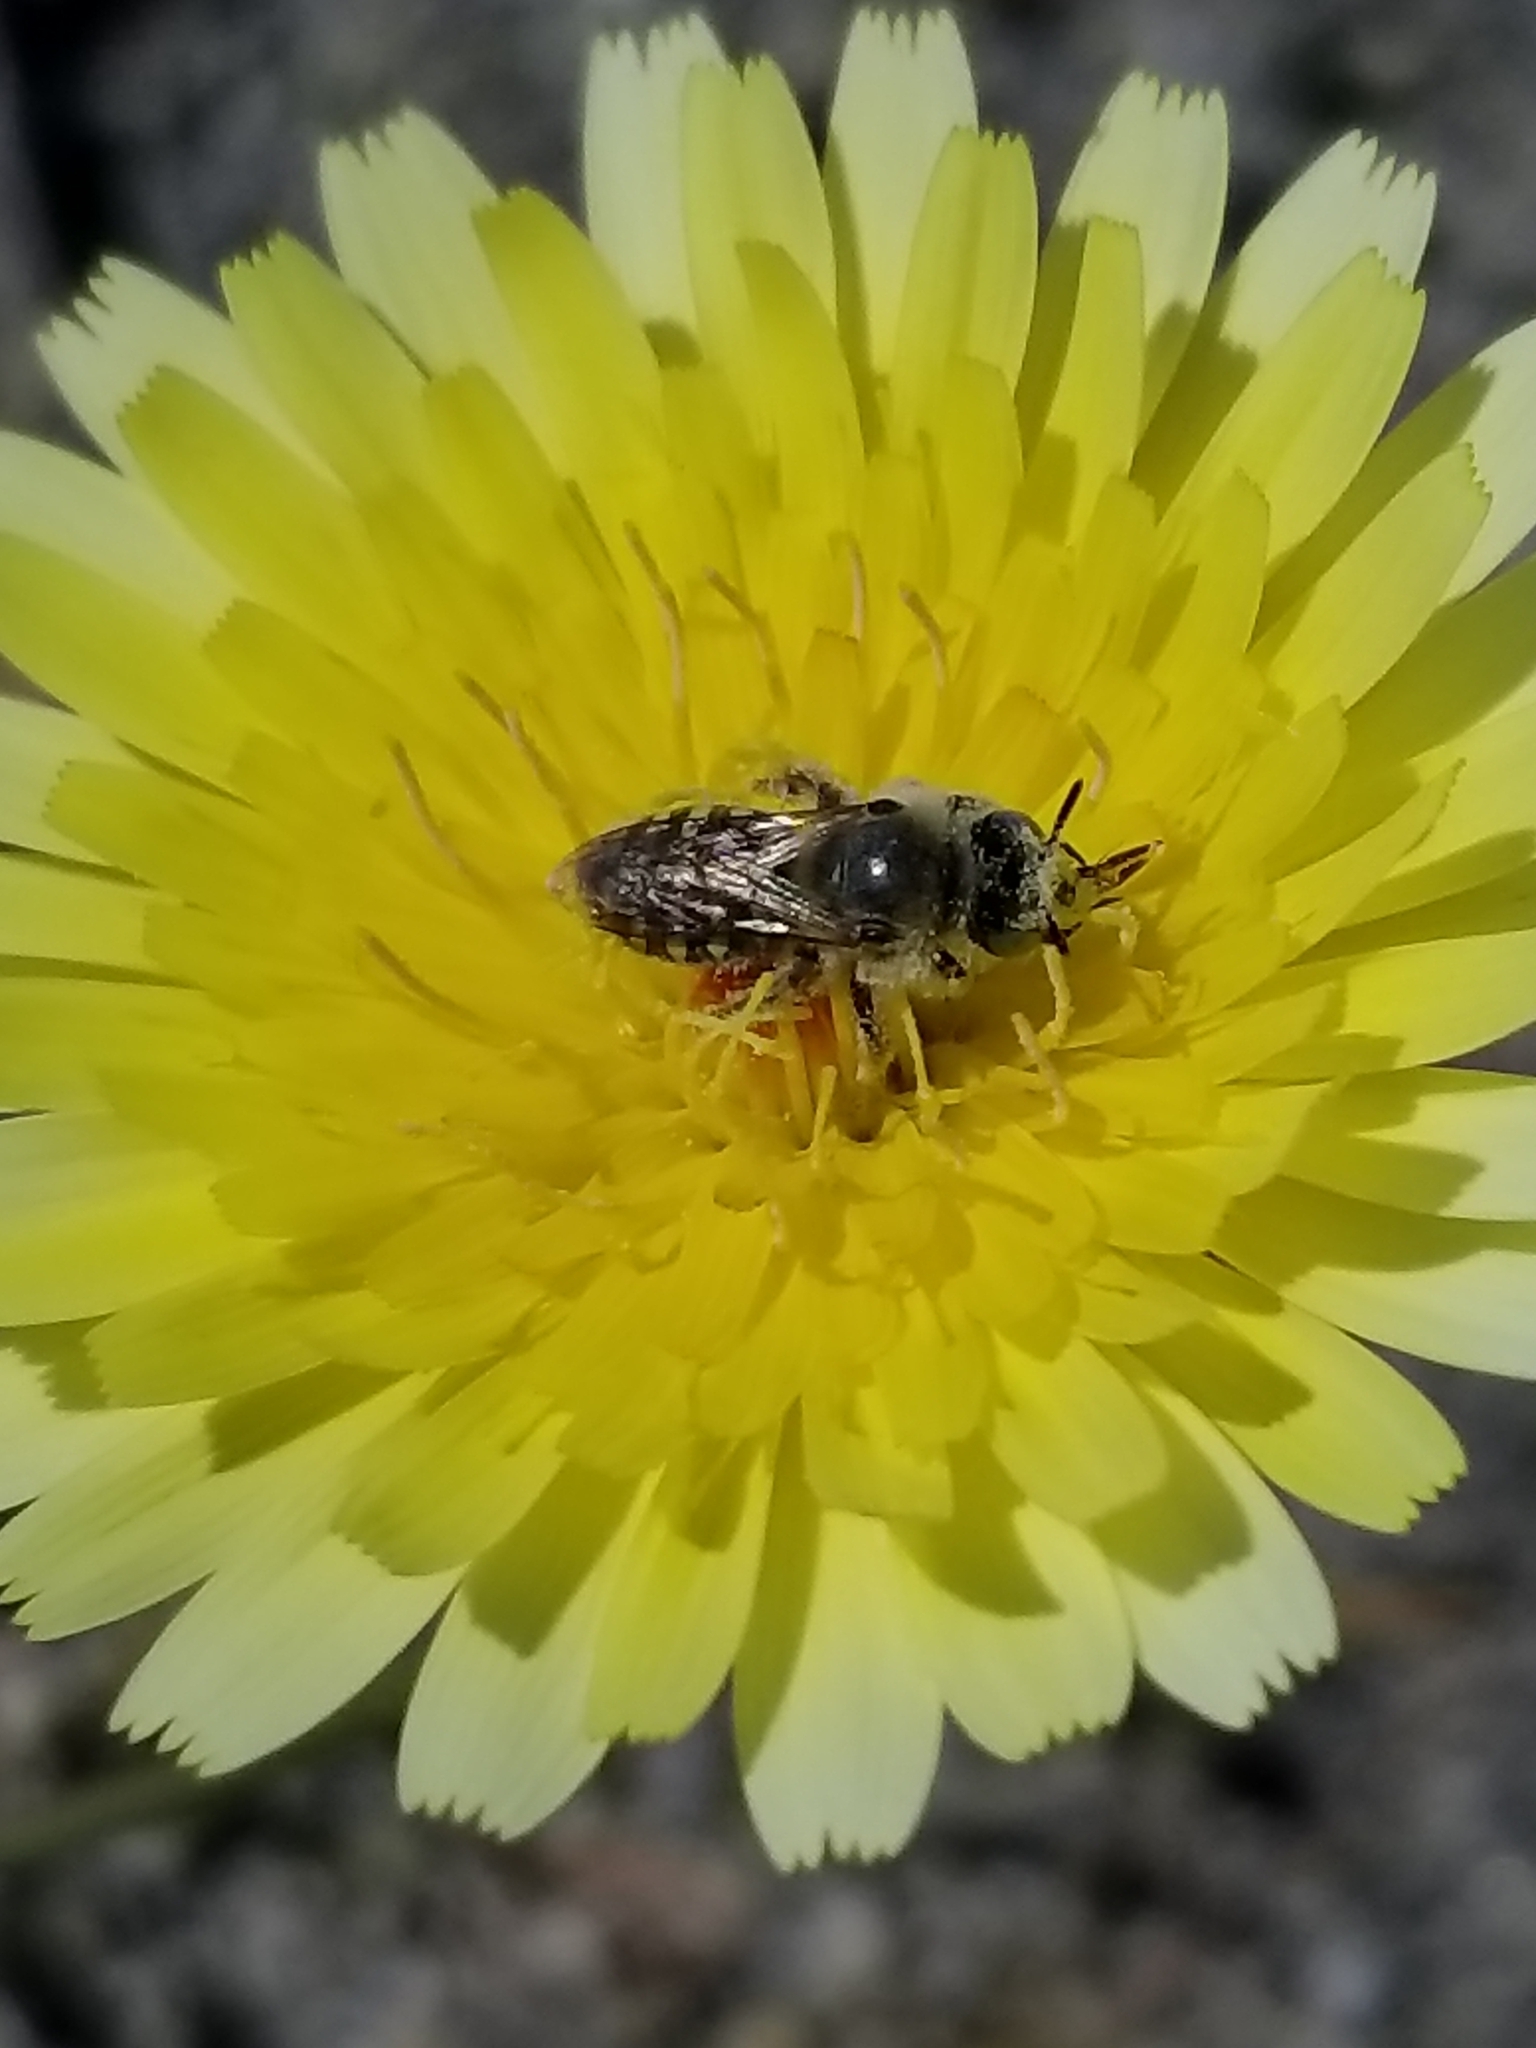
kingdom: Animalia
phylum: Arthropoda
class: Insecta
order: Hymenoptera
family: Andrenidae
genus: Calliopsis
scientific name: Calliopsis puellae
